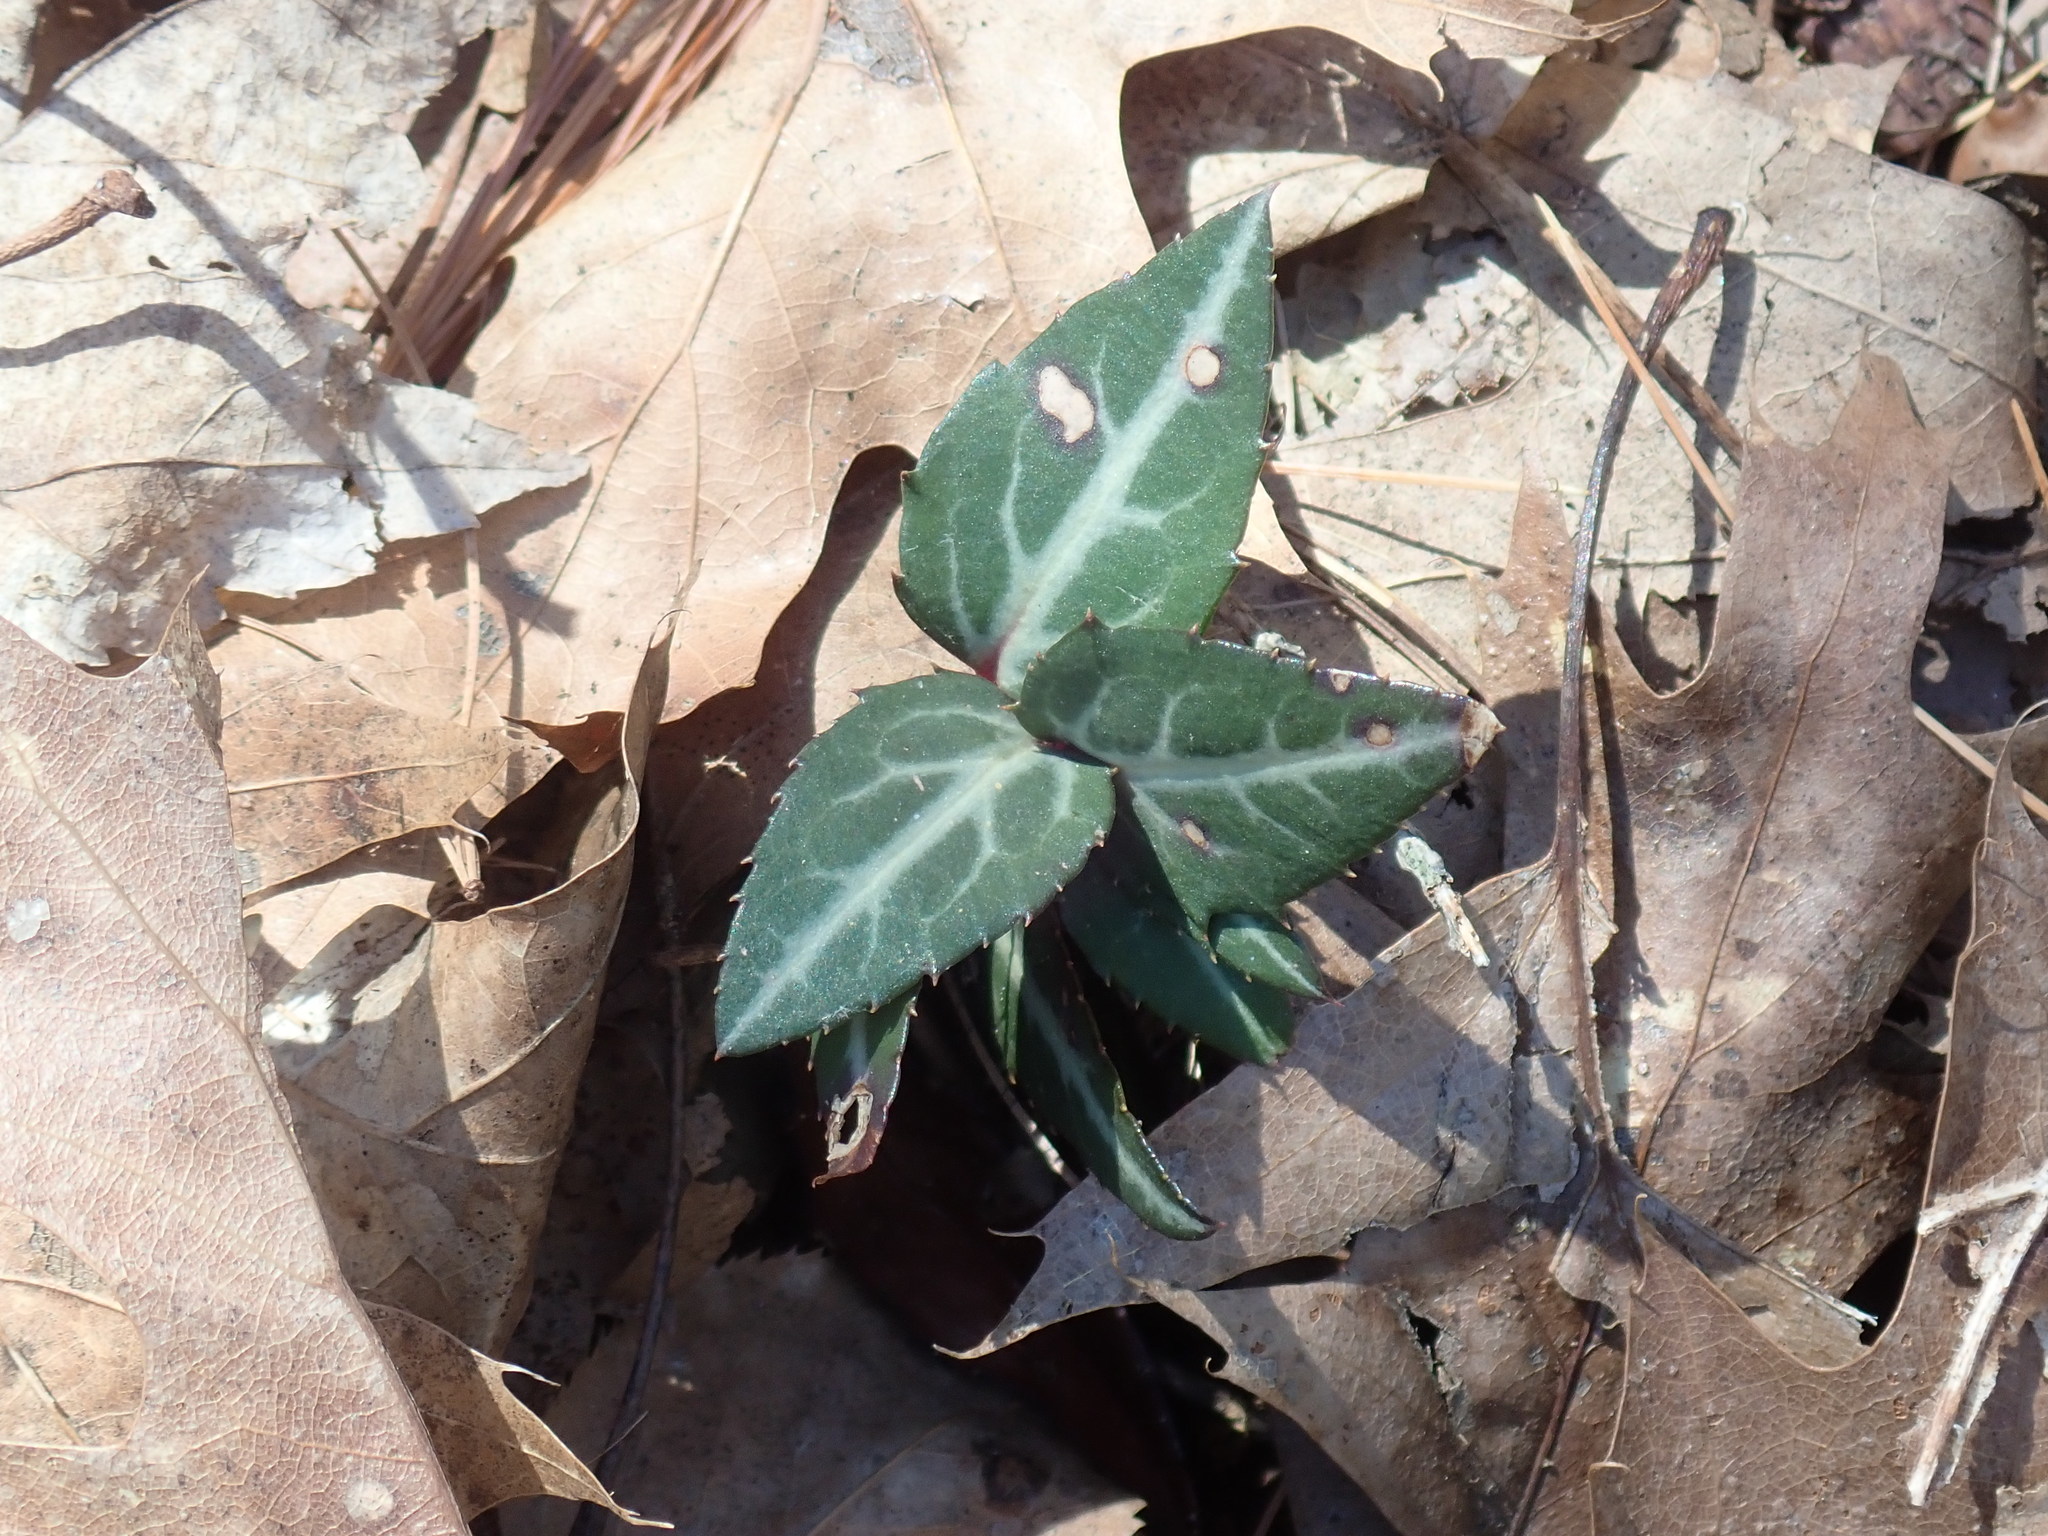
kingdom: Plantae
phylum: Tracheophyta
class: Magnoliopsida
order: Ericales
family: Ericaceae
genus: Chimaphila
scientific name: Chimaphila maculata
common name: Spotted pipsissewa
